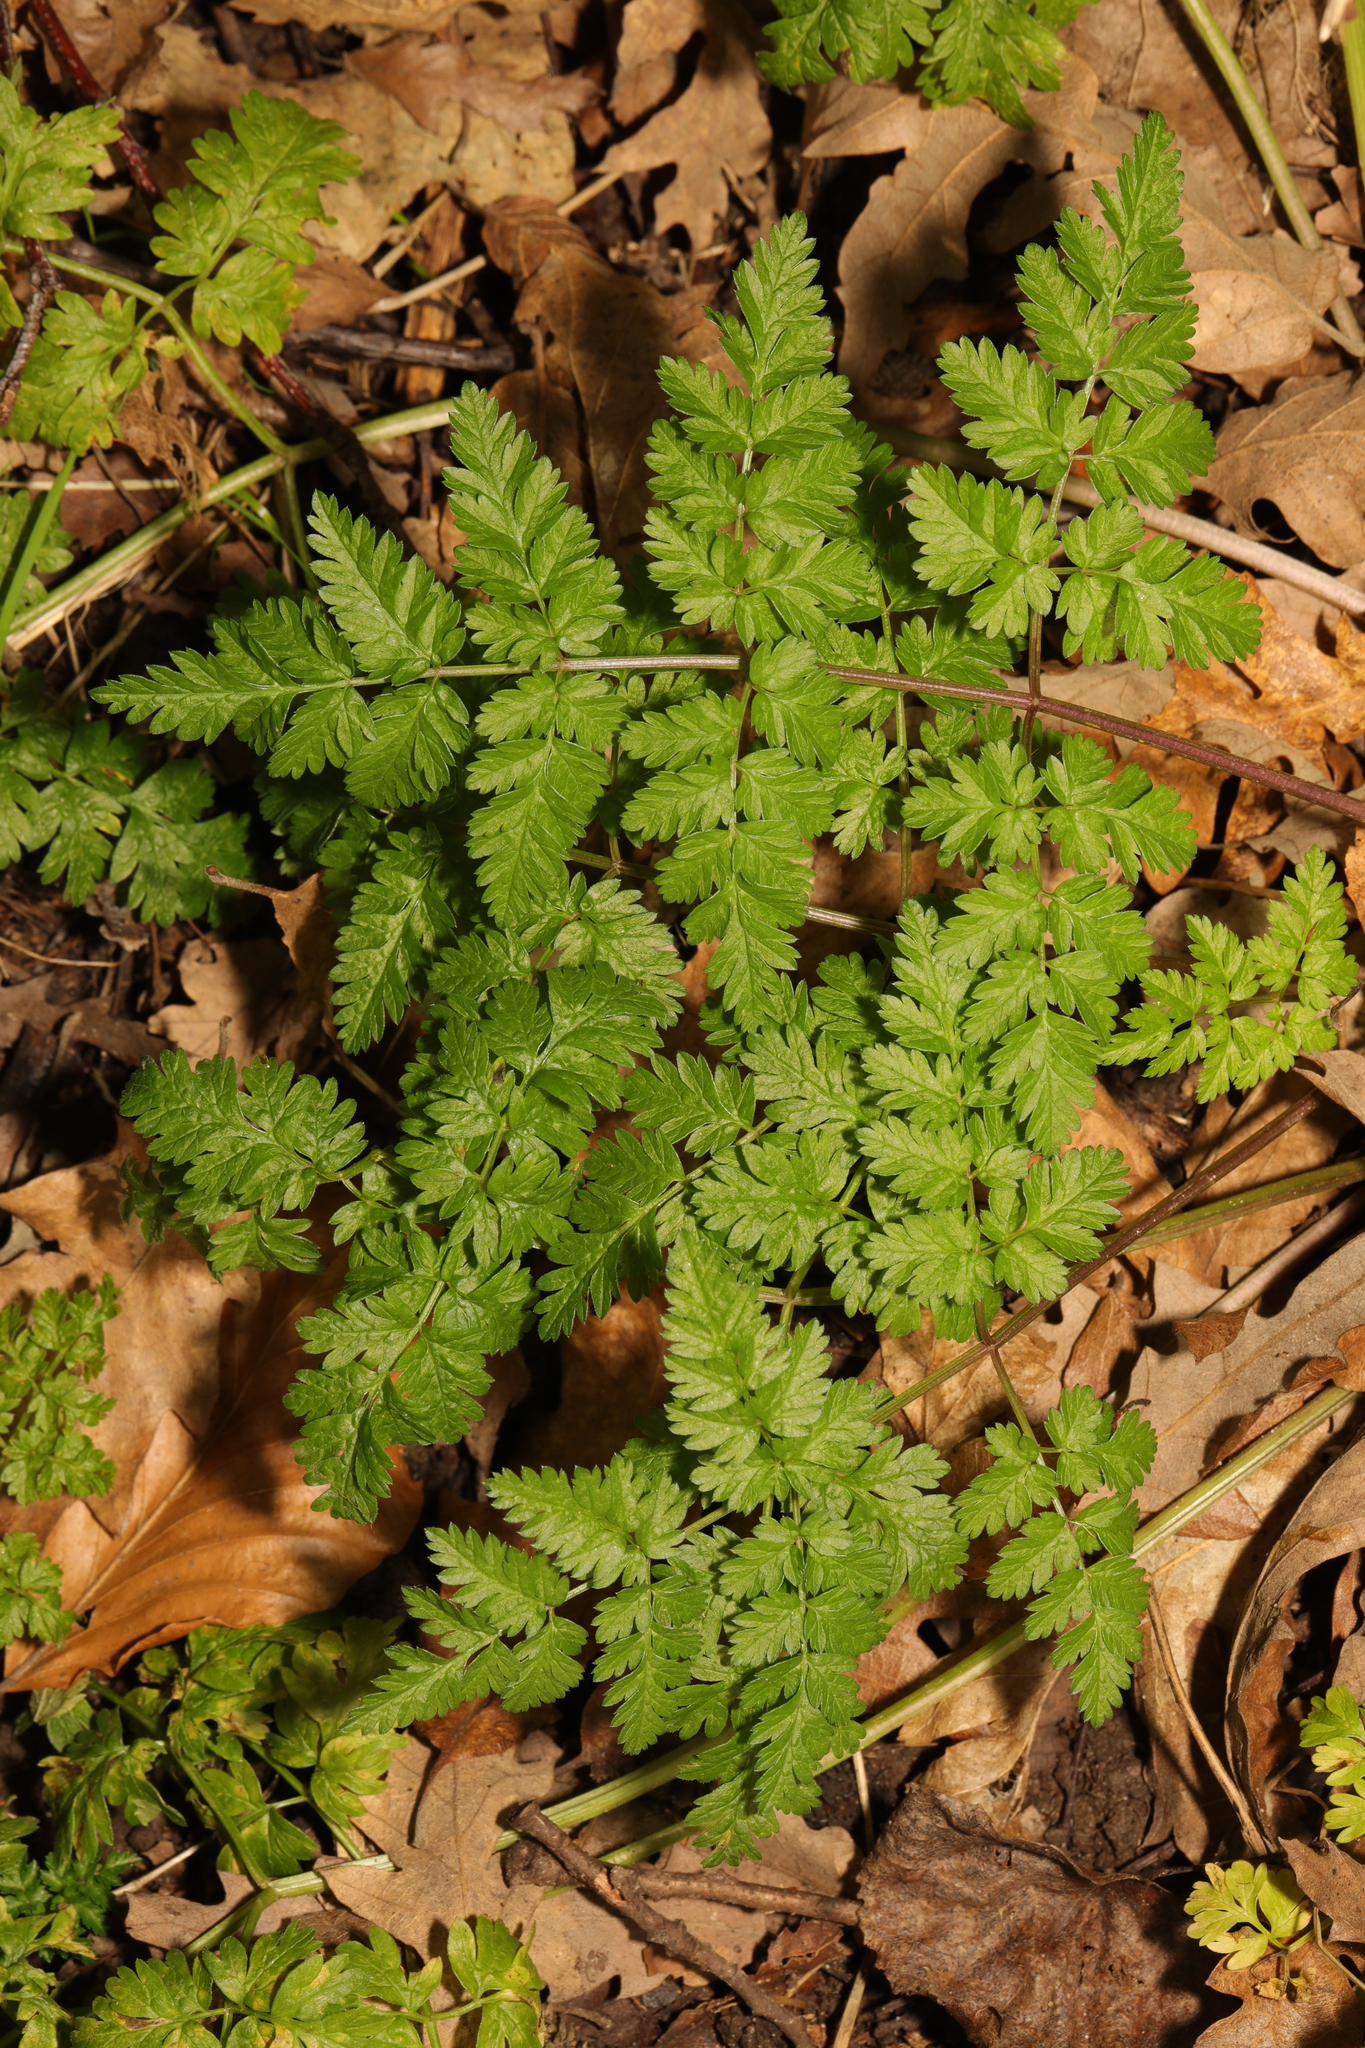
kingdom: Plantae
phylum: Tracheophyta
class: Magnoliopsida
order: Apiales
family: Apiaceae
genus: Anthriscus
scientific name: Anthriscus sylvestris
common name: Cow parsley
